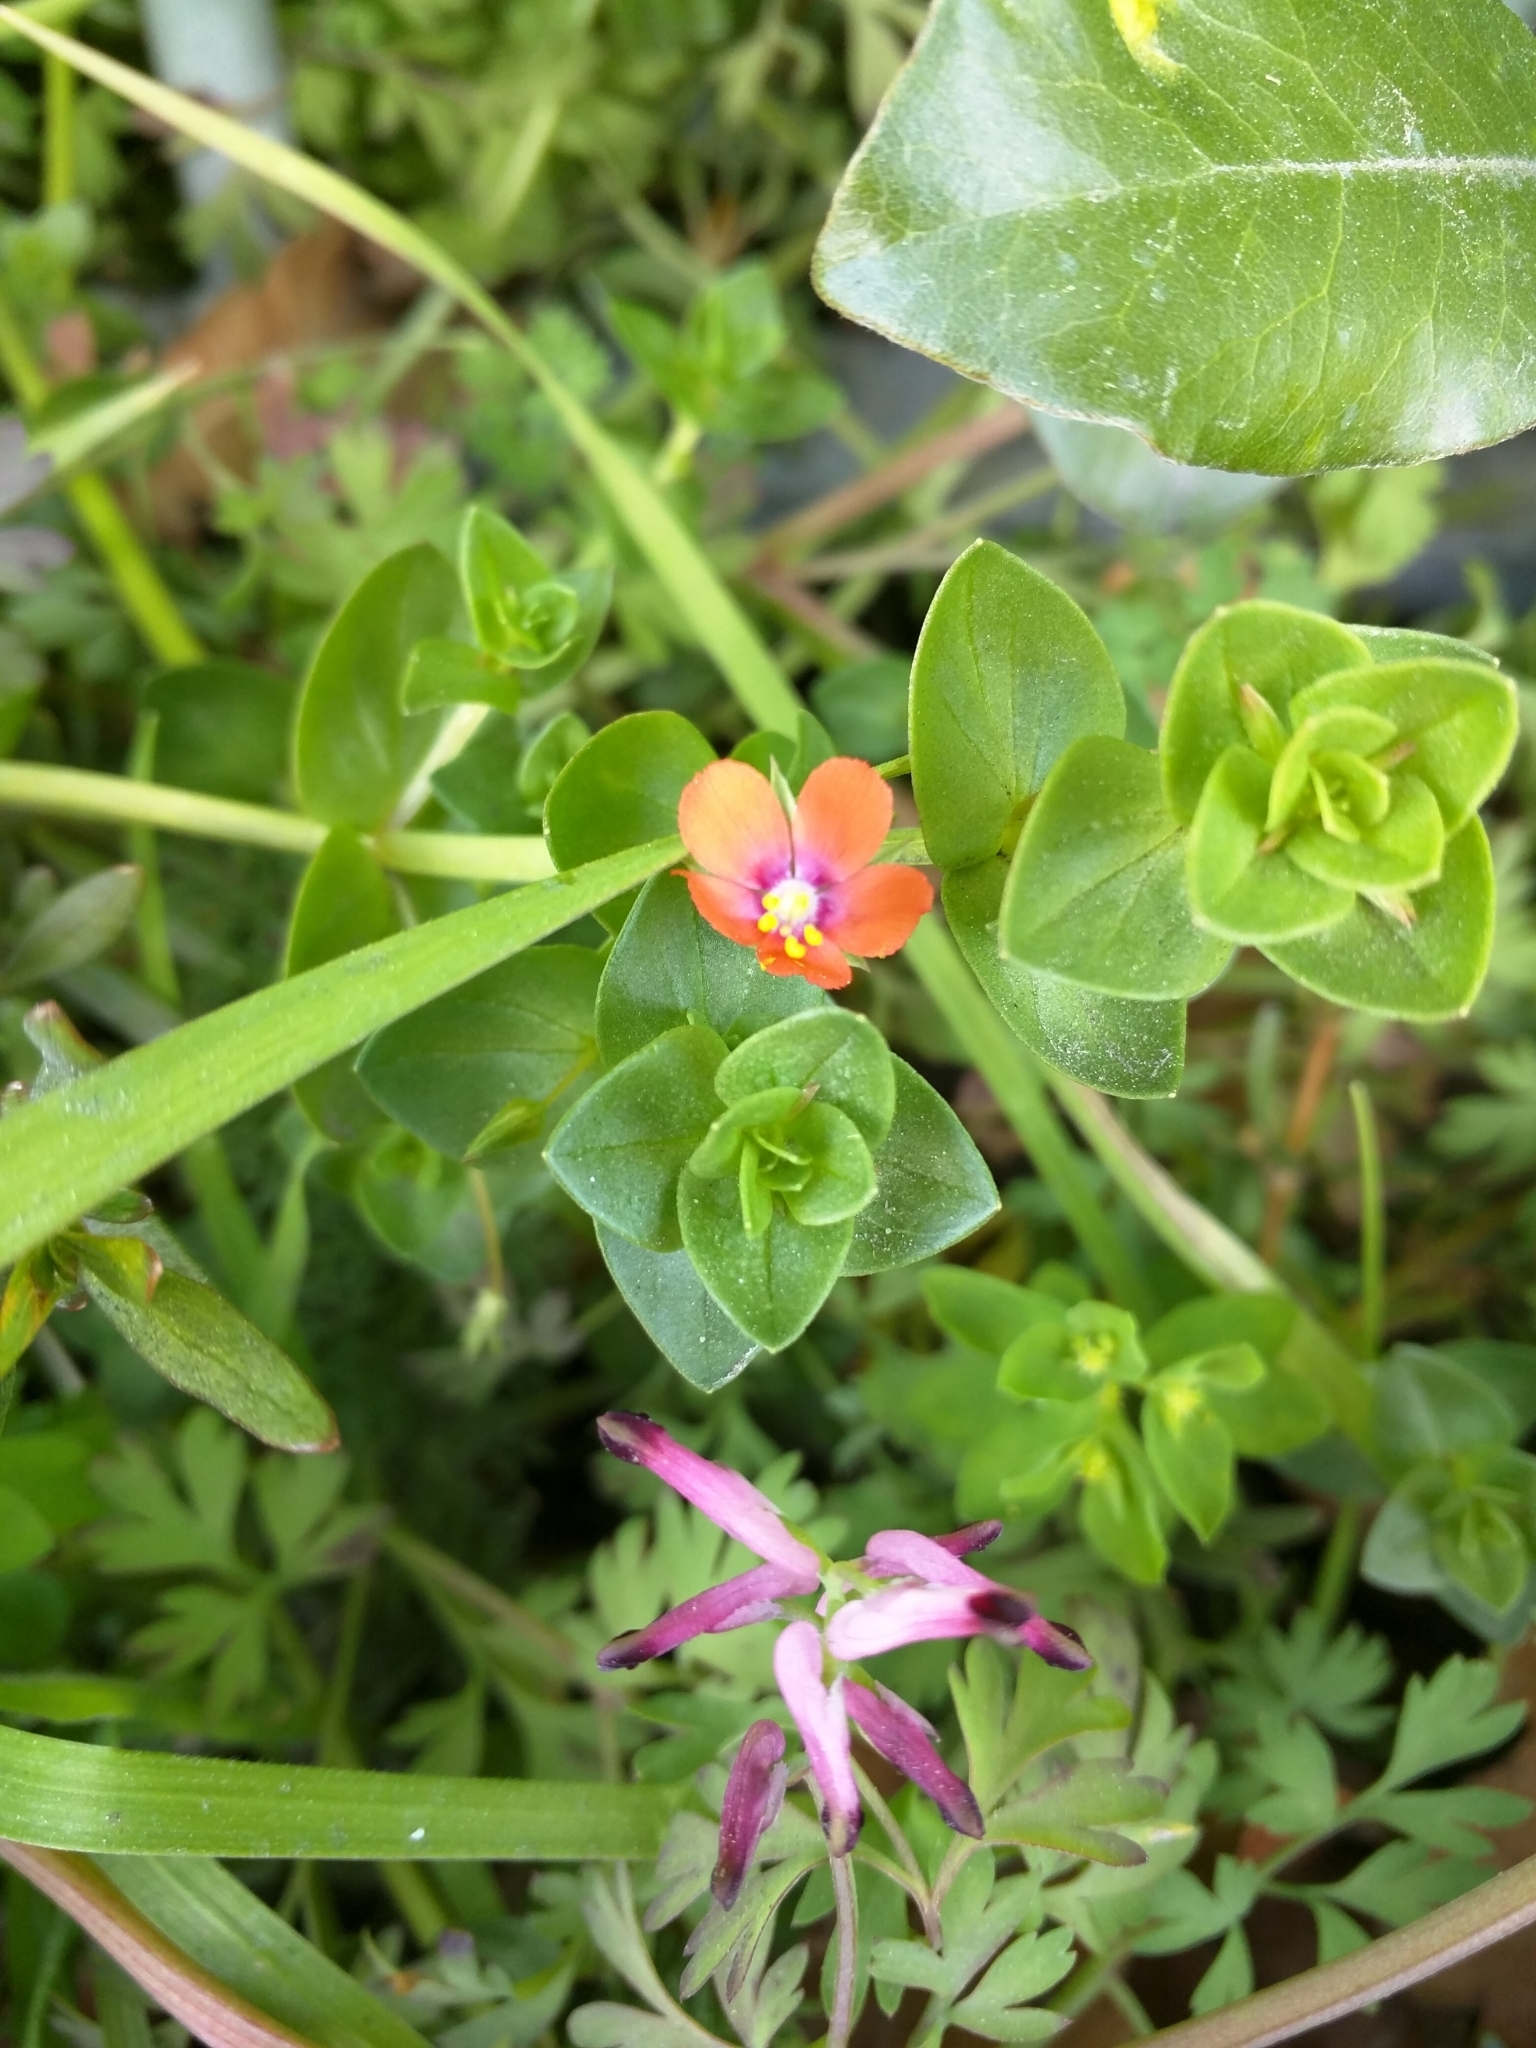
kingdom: Plantae
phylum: Tracheophyta
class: Magnoliopsida
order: Ericales
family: Primulaceae
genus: Lysimachia
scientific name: Lysimachia arvensis
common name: Scarlet pimpernel
